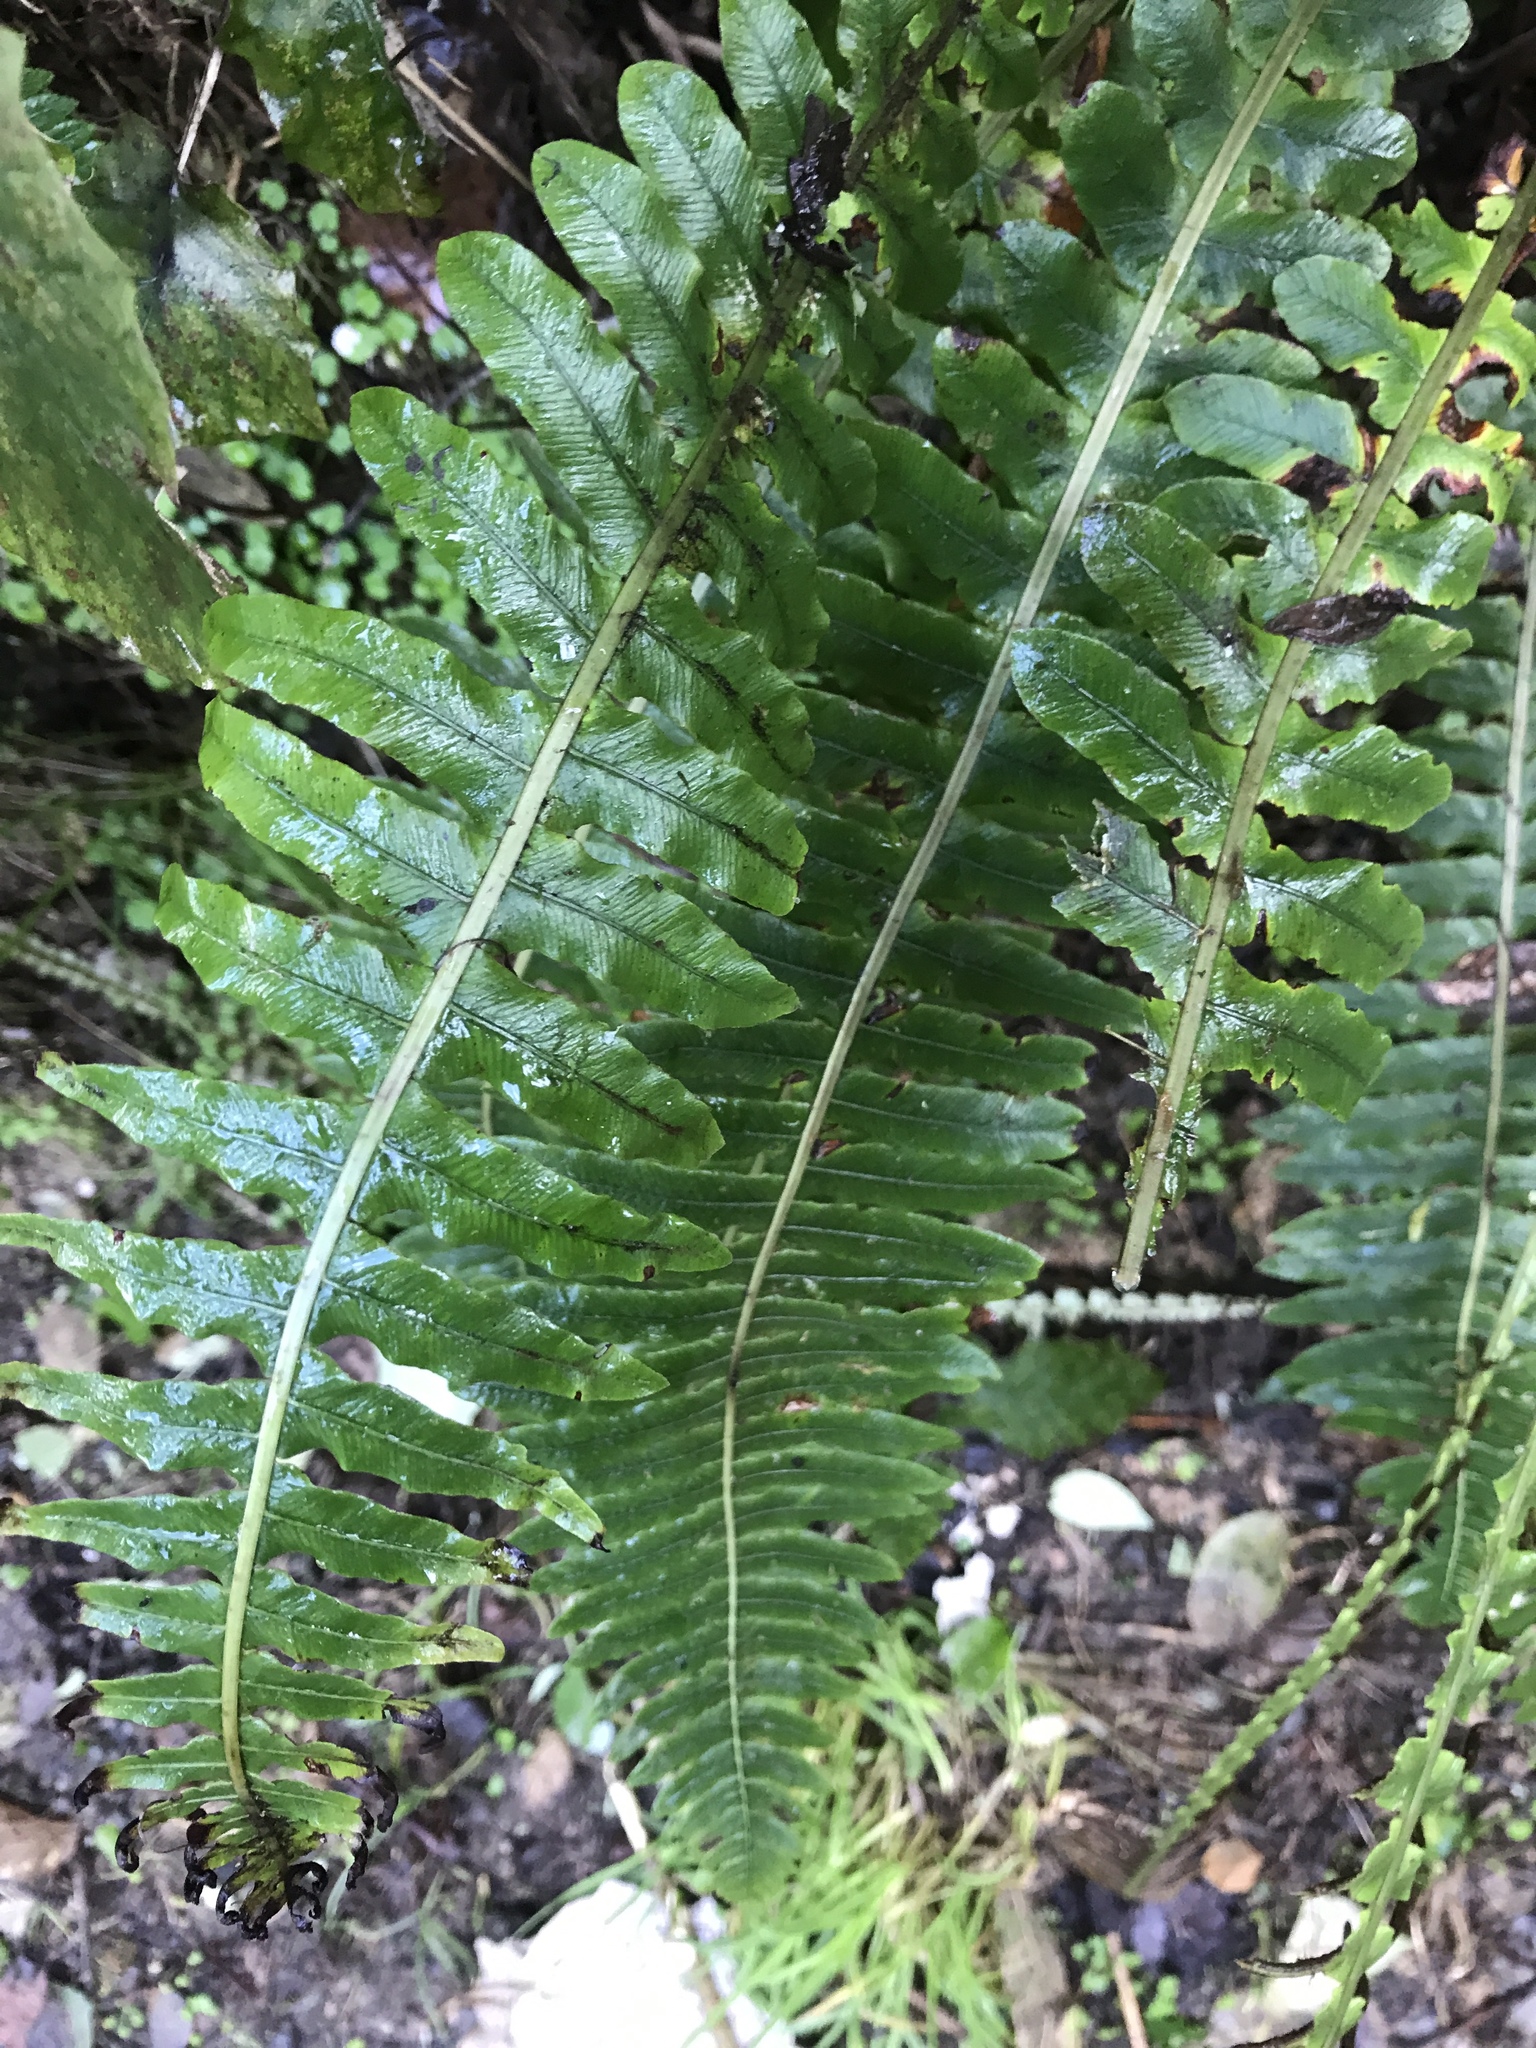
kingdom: Plantae
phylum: Tracheophyta
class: Polypodiopsida
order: Polypodiales
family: Blechnaceae
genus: Lomaria
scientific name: Lomaria discolor
